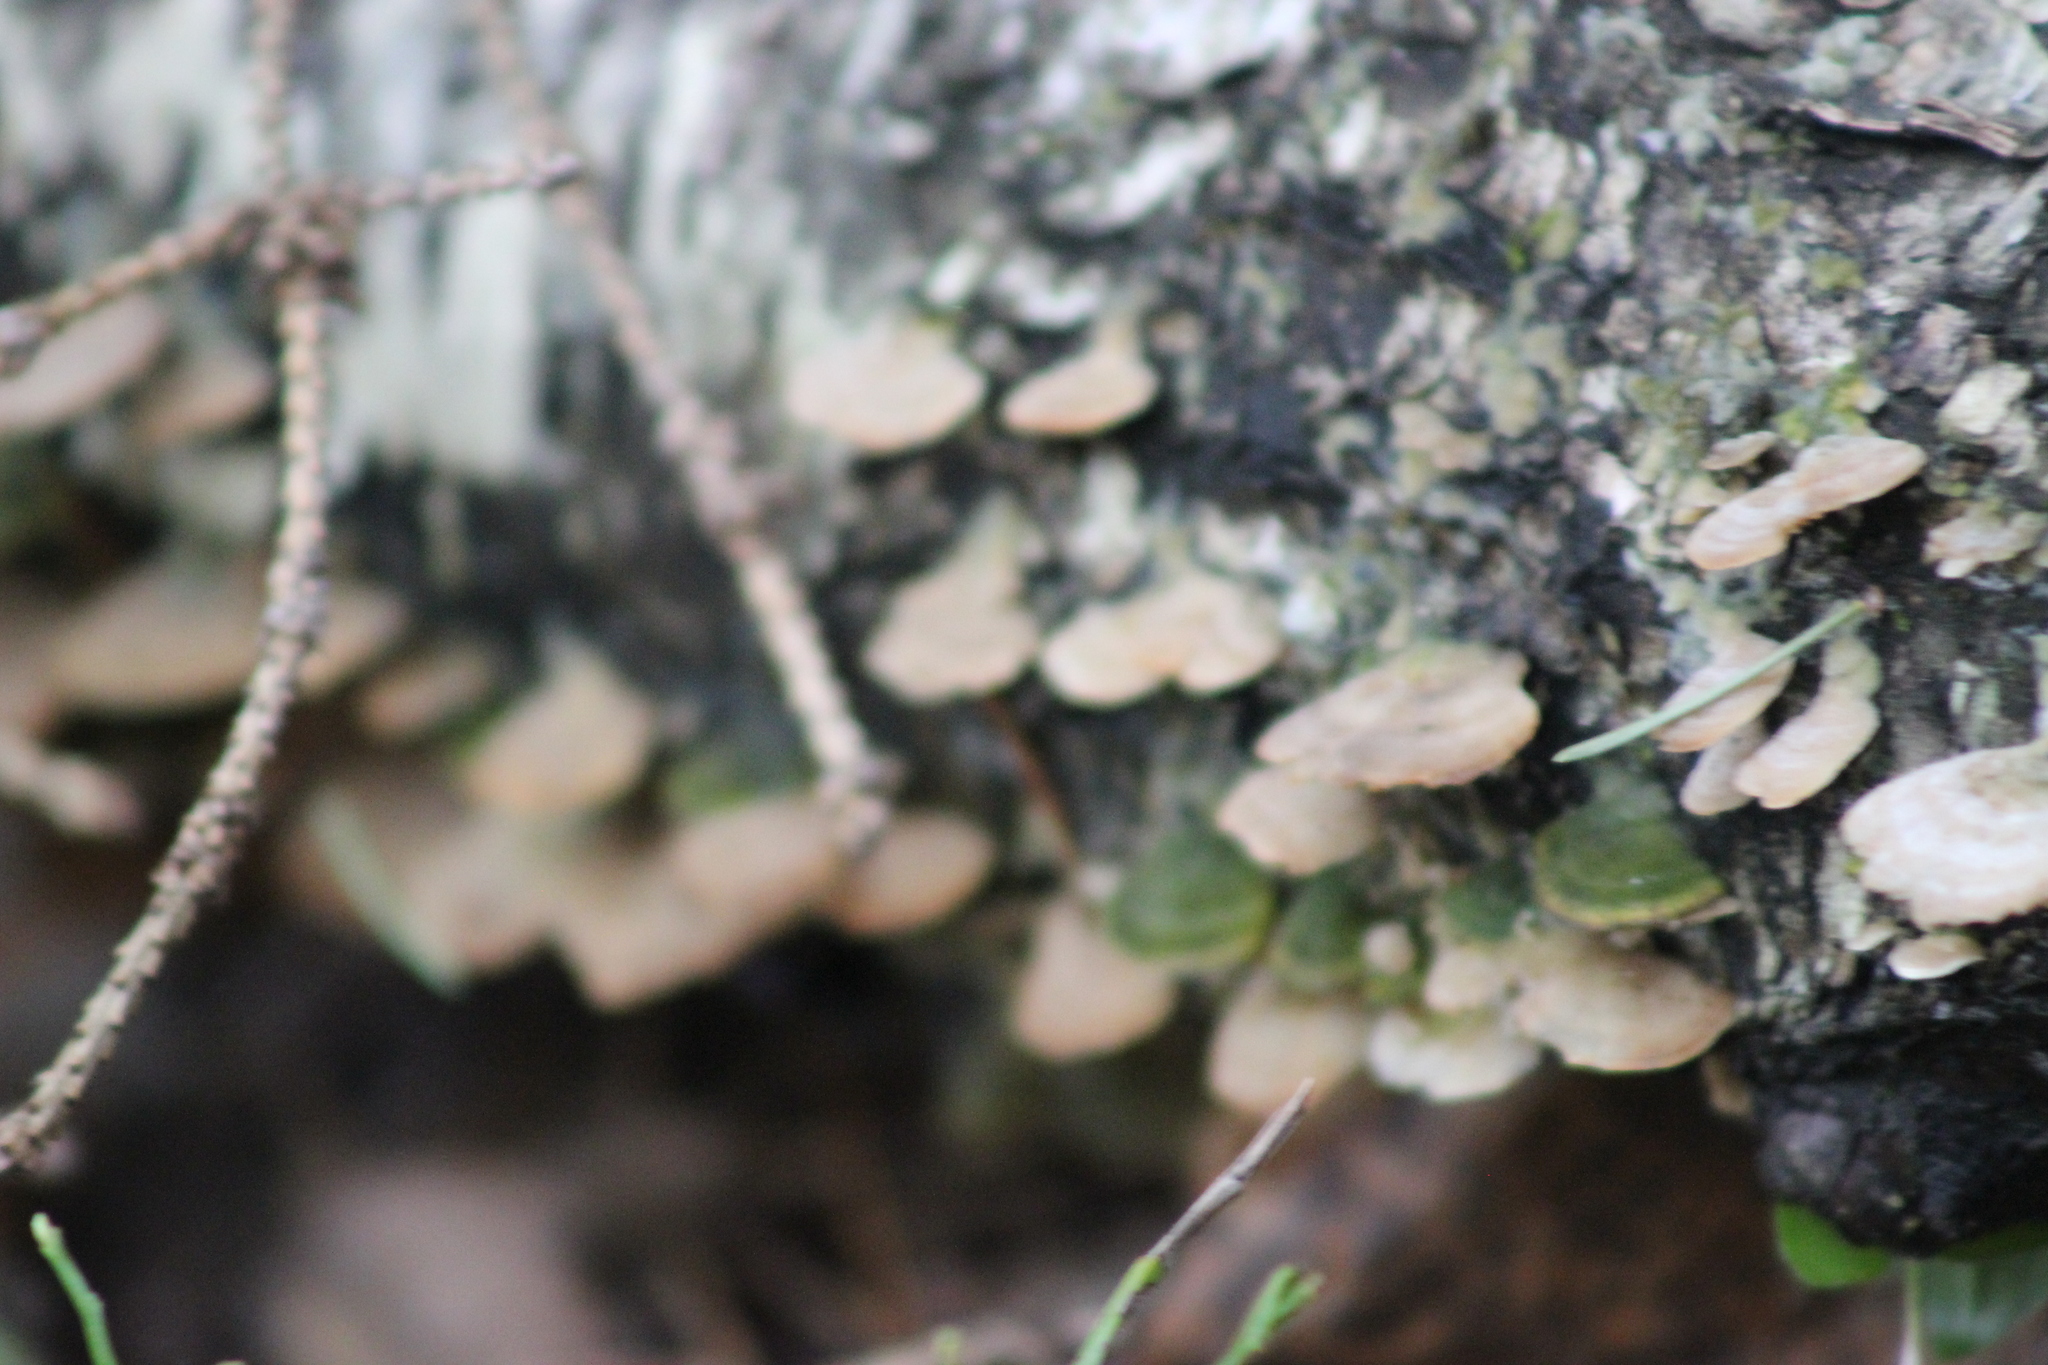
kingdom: Fungi
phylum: Basidiomycota
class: Agaricomycetes
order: Hymenochaetales
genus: Trichaptum
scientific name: Trichaptum biforme
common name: Violet-toothed polypore
